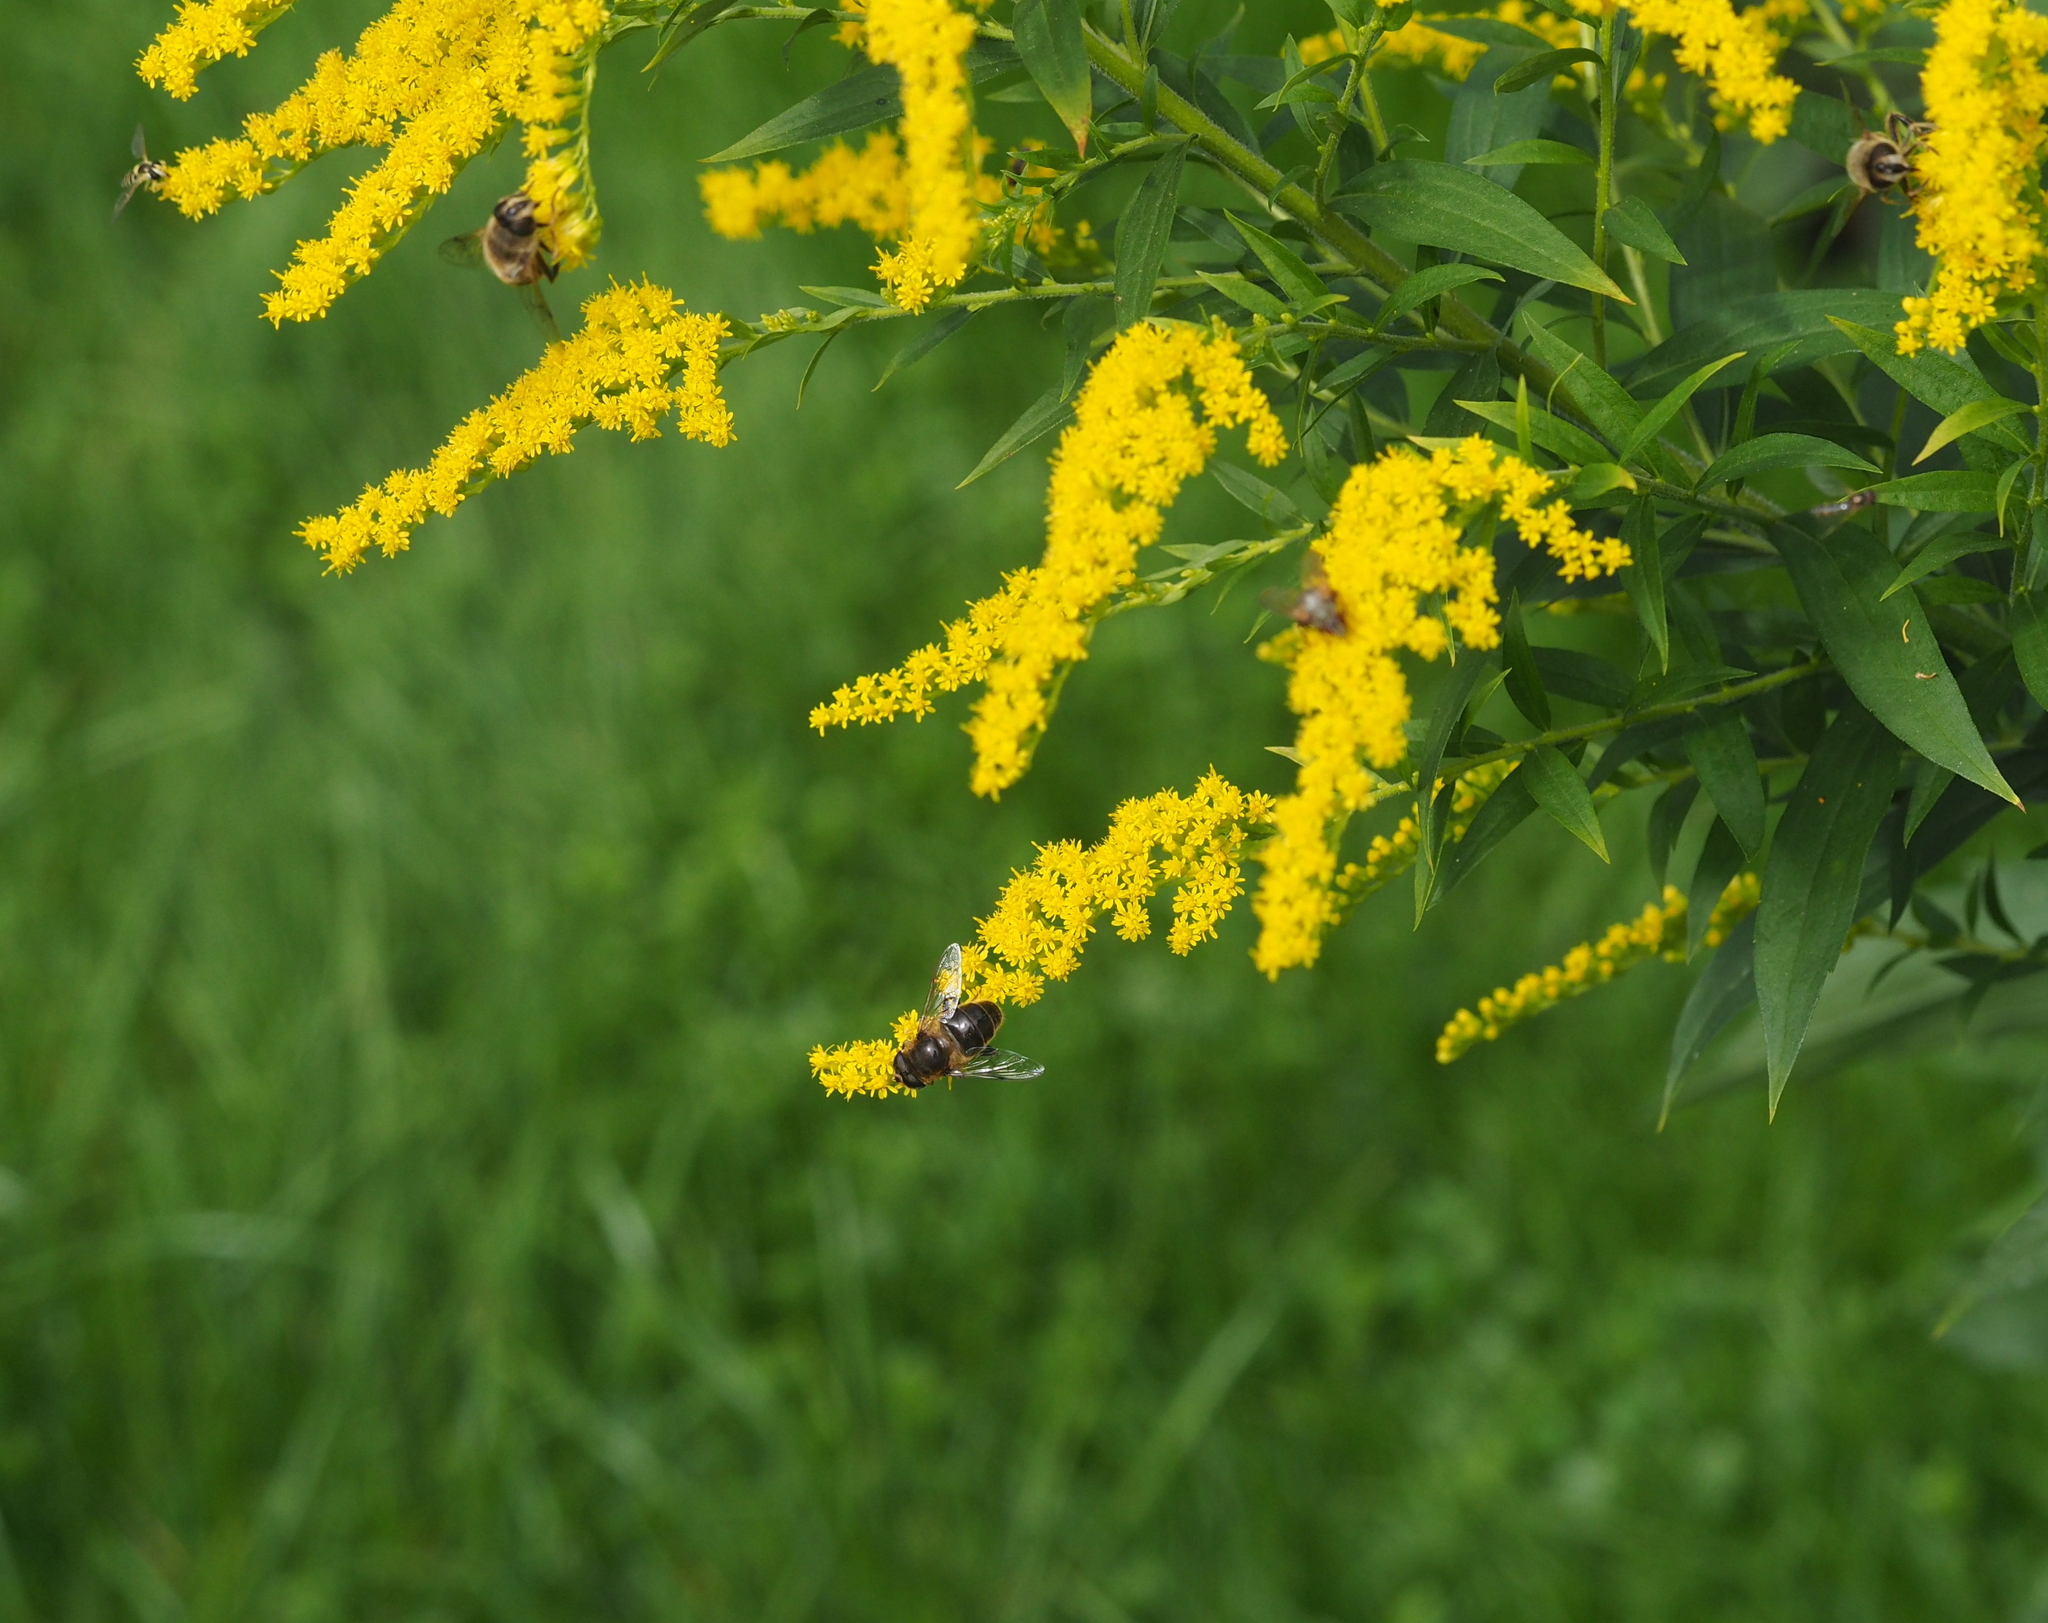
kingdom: Animalia
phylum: Arthropoda
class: Insecta
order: Diptera
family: Syrphidae
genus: Eristalis
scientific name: Eristalis tenax
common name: Drone fly
